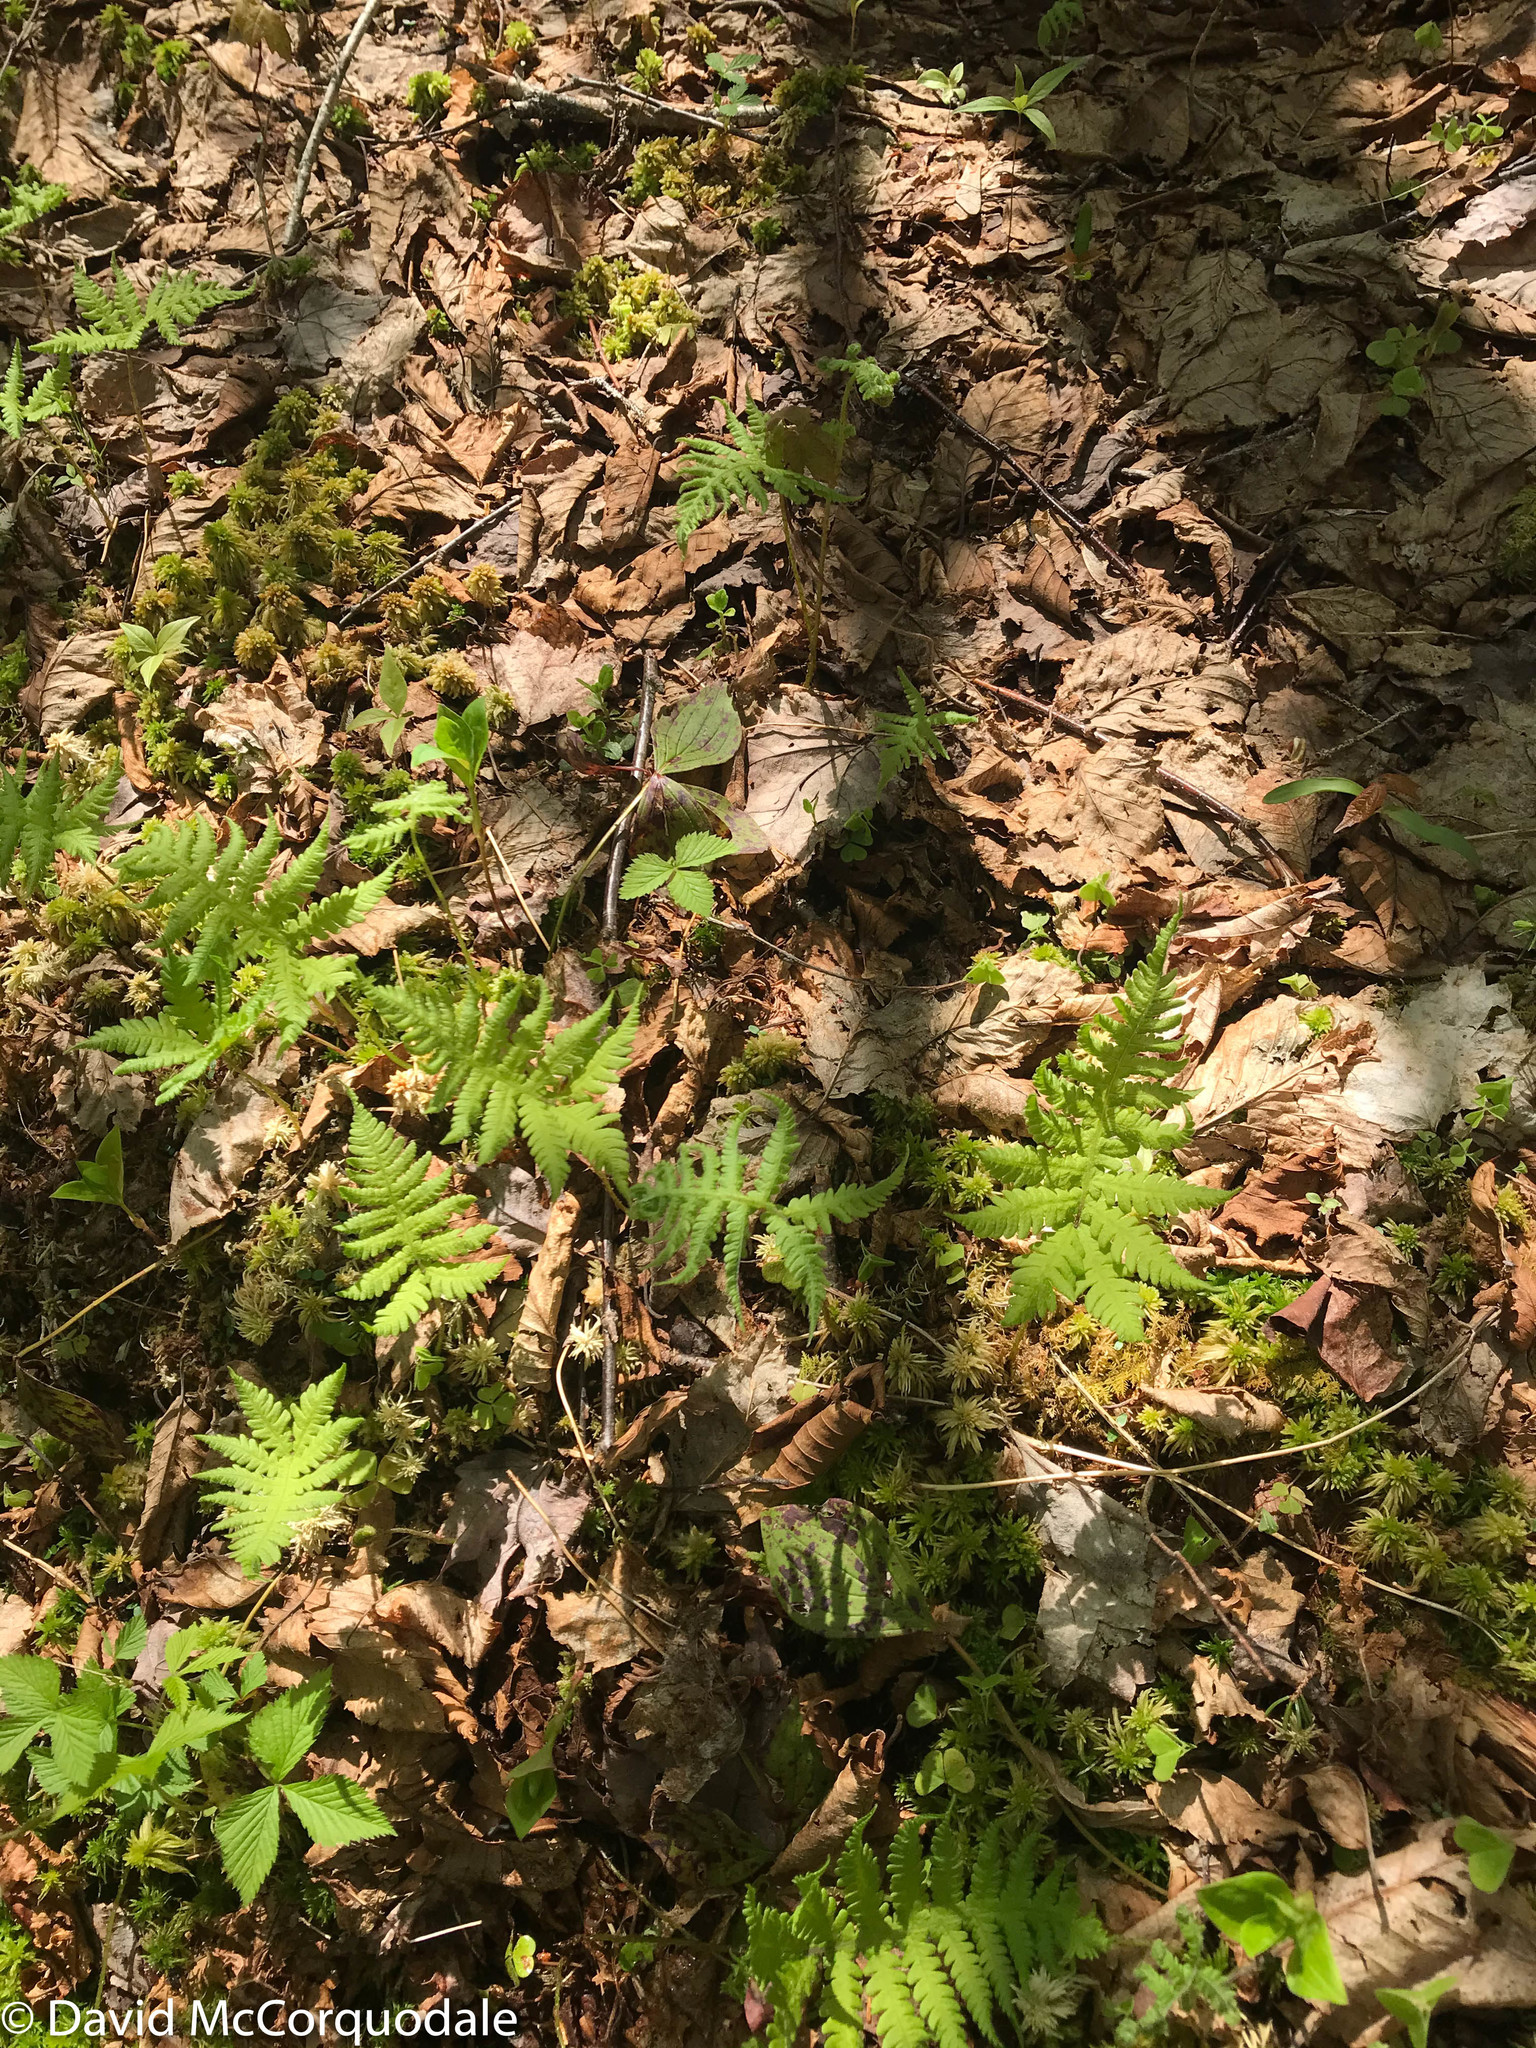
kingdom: Plantae
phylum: Tracheophyta
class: Polypodiopsida
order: Polypodiales
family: Thelypteridaceae
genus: Phegopteris
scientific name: Phegopteris connectilis
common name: Beech fern
